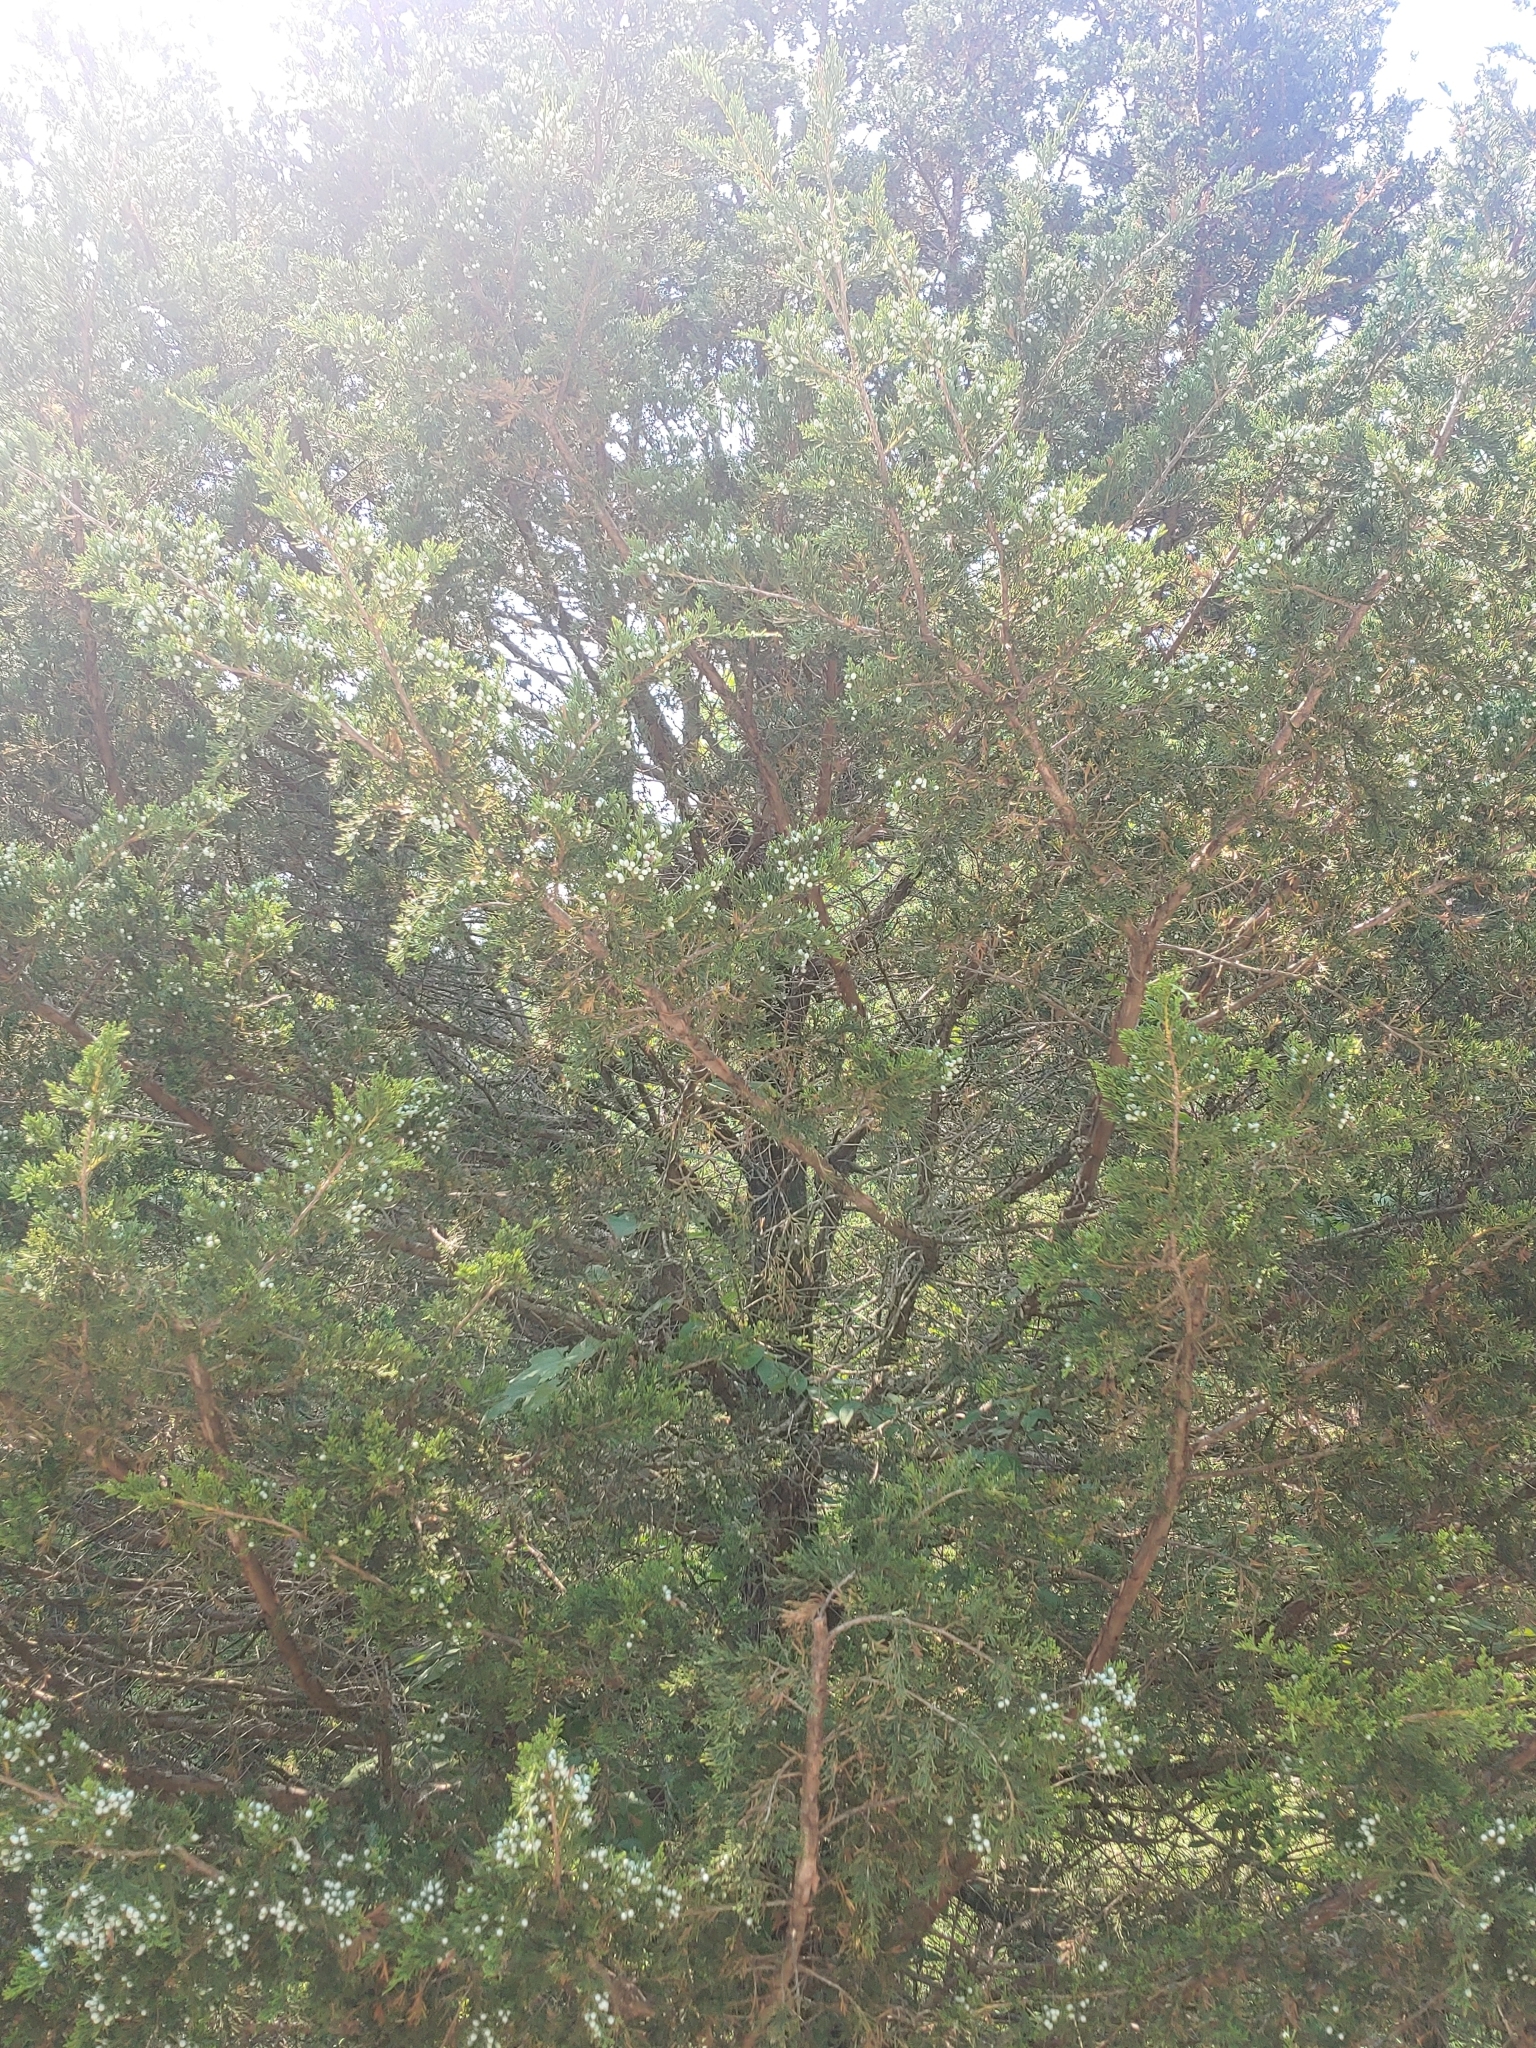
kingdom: Plantae
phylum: Tracheophyta
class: Pinopsida
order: Pinales
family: Cupressaceae
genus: Juniperus
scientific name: Juniperus virginiana
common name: Red juniper
